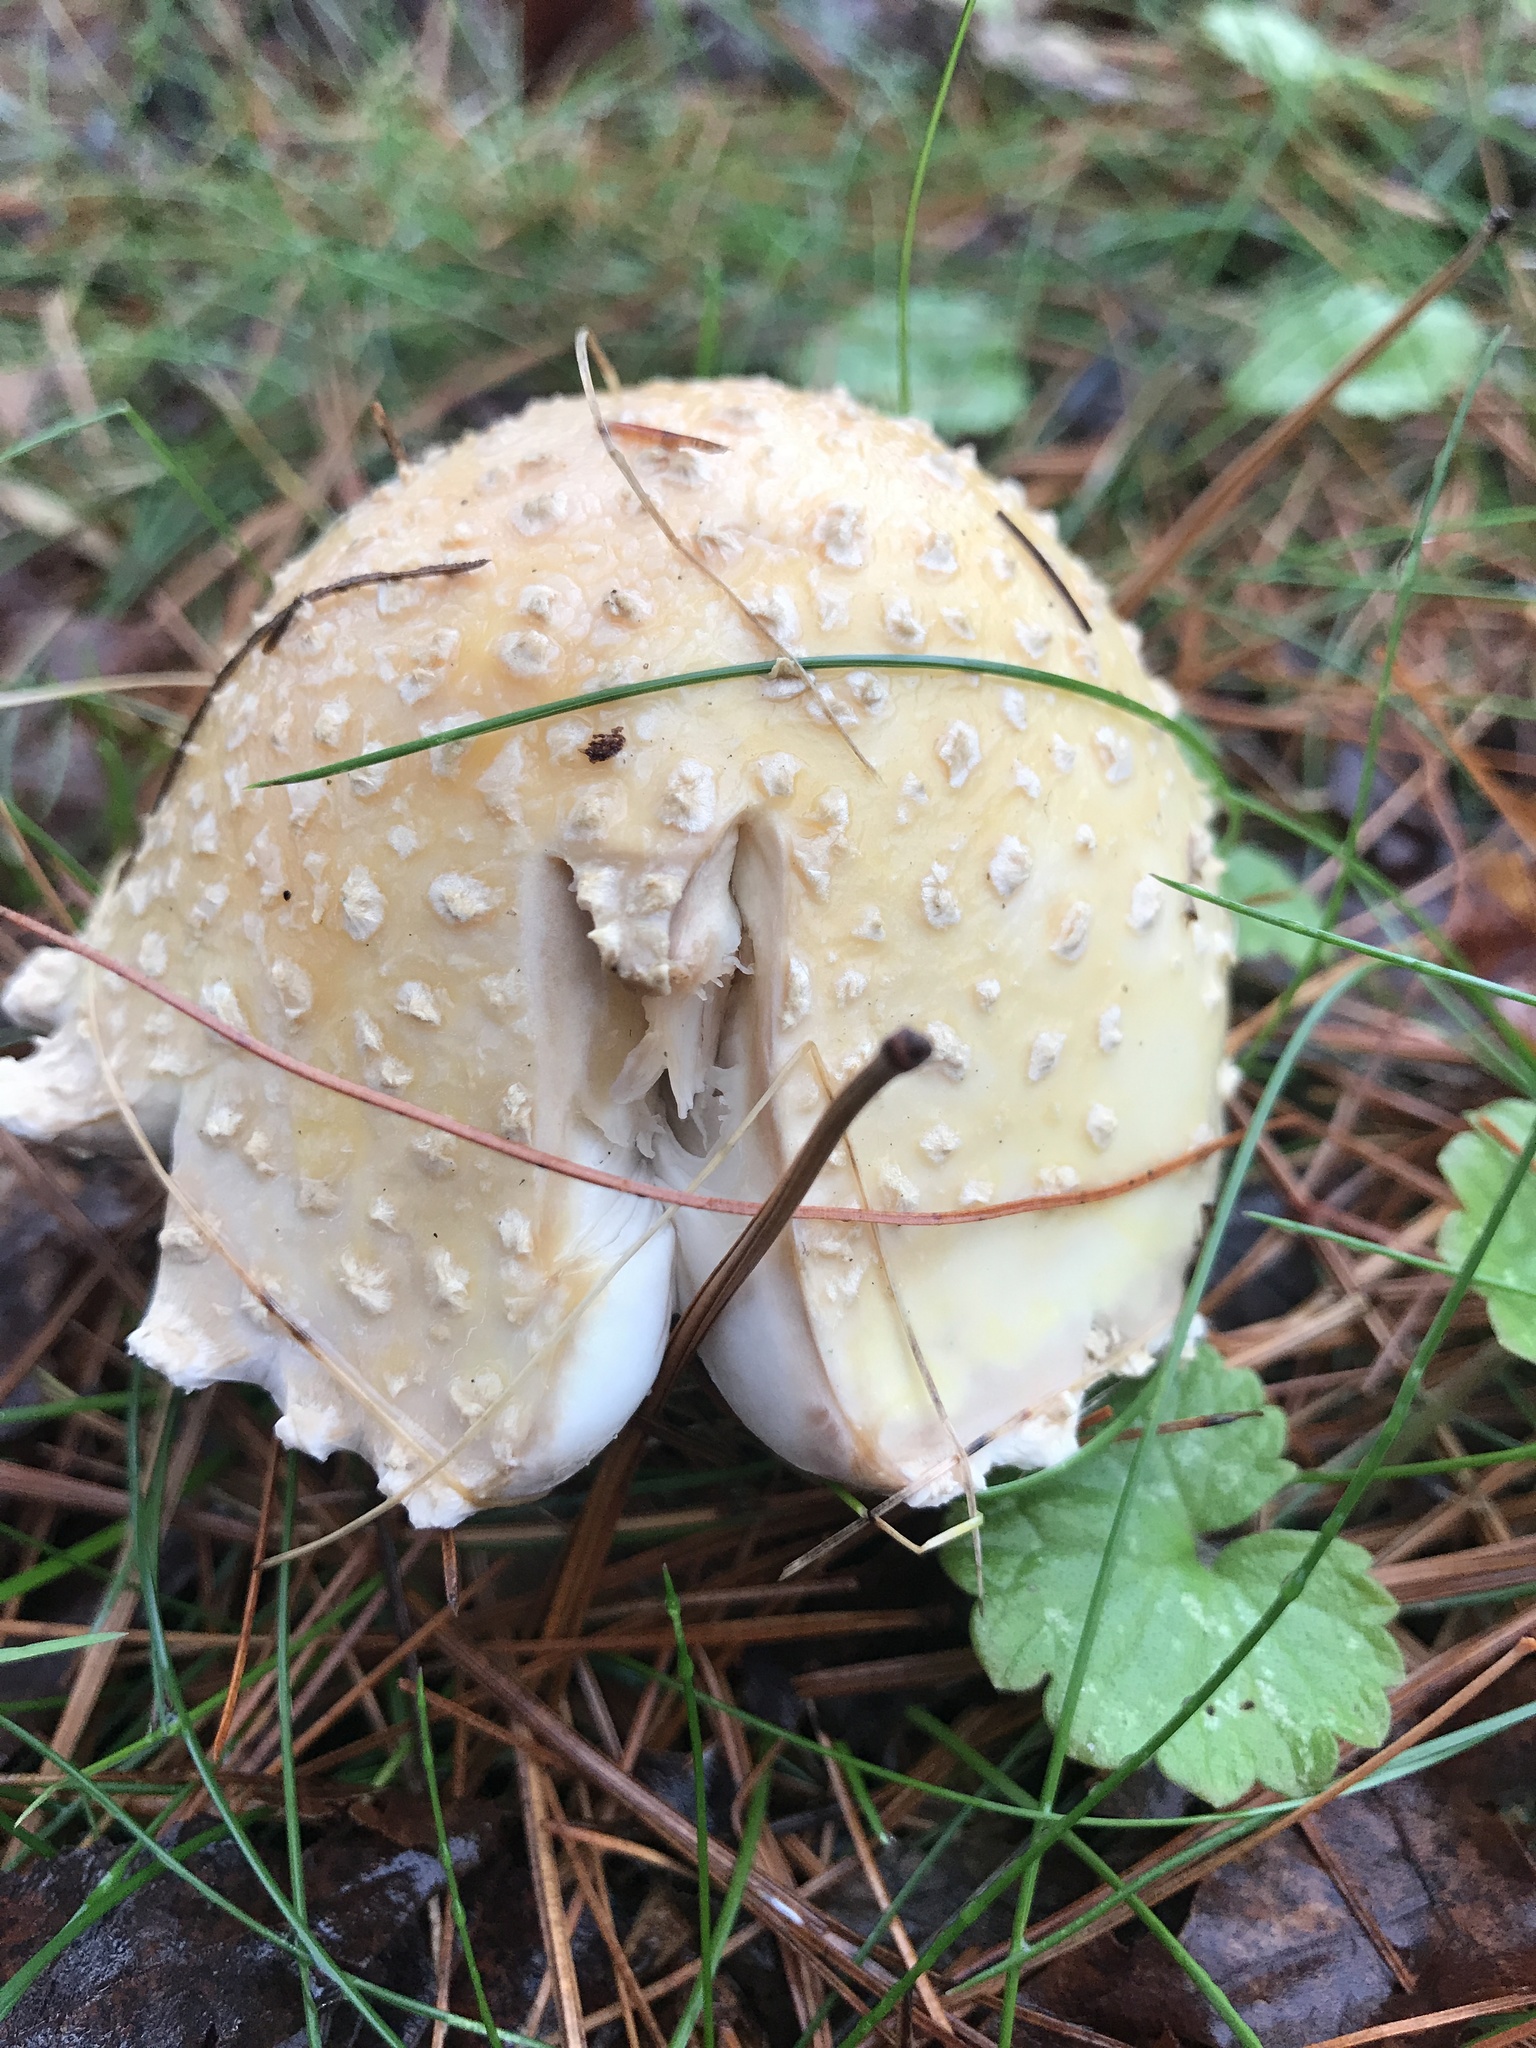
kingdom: Fungi
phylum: Basidiomycota
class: Agaricomycetes
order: Agaricales
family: Amanitaceae
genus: Amanita
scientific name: Amanita muscaria
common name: Fly agaric
